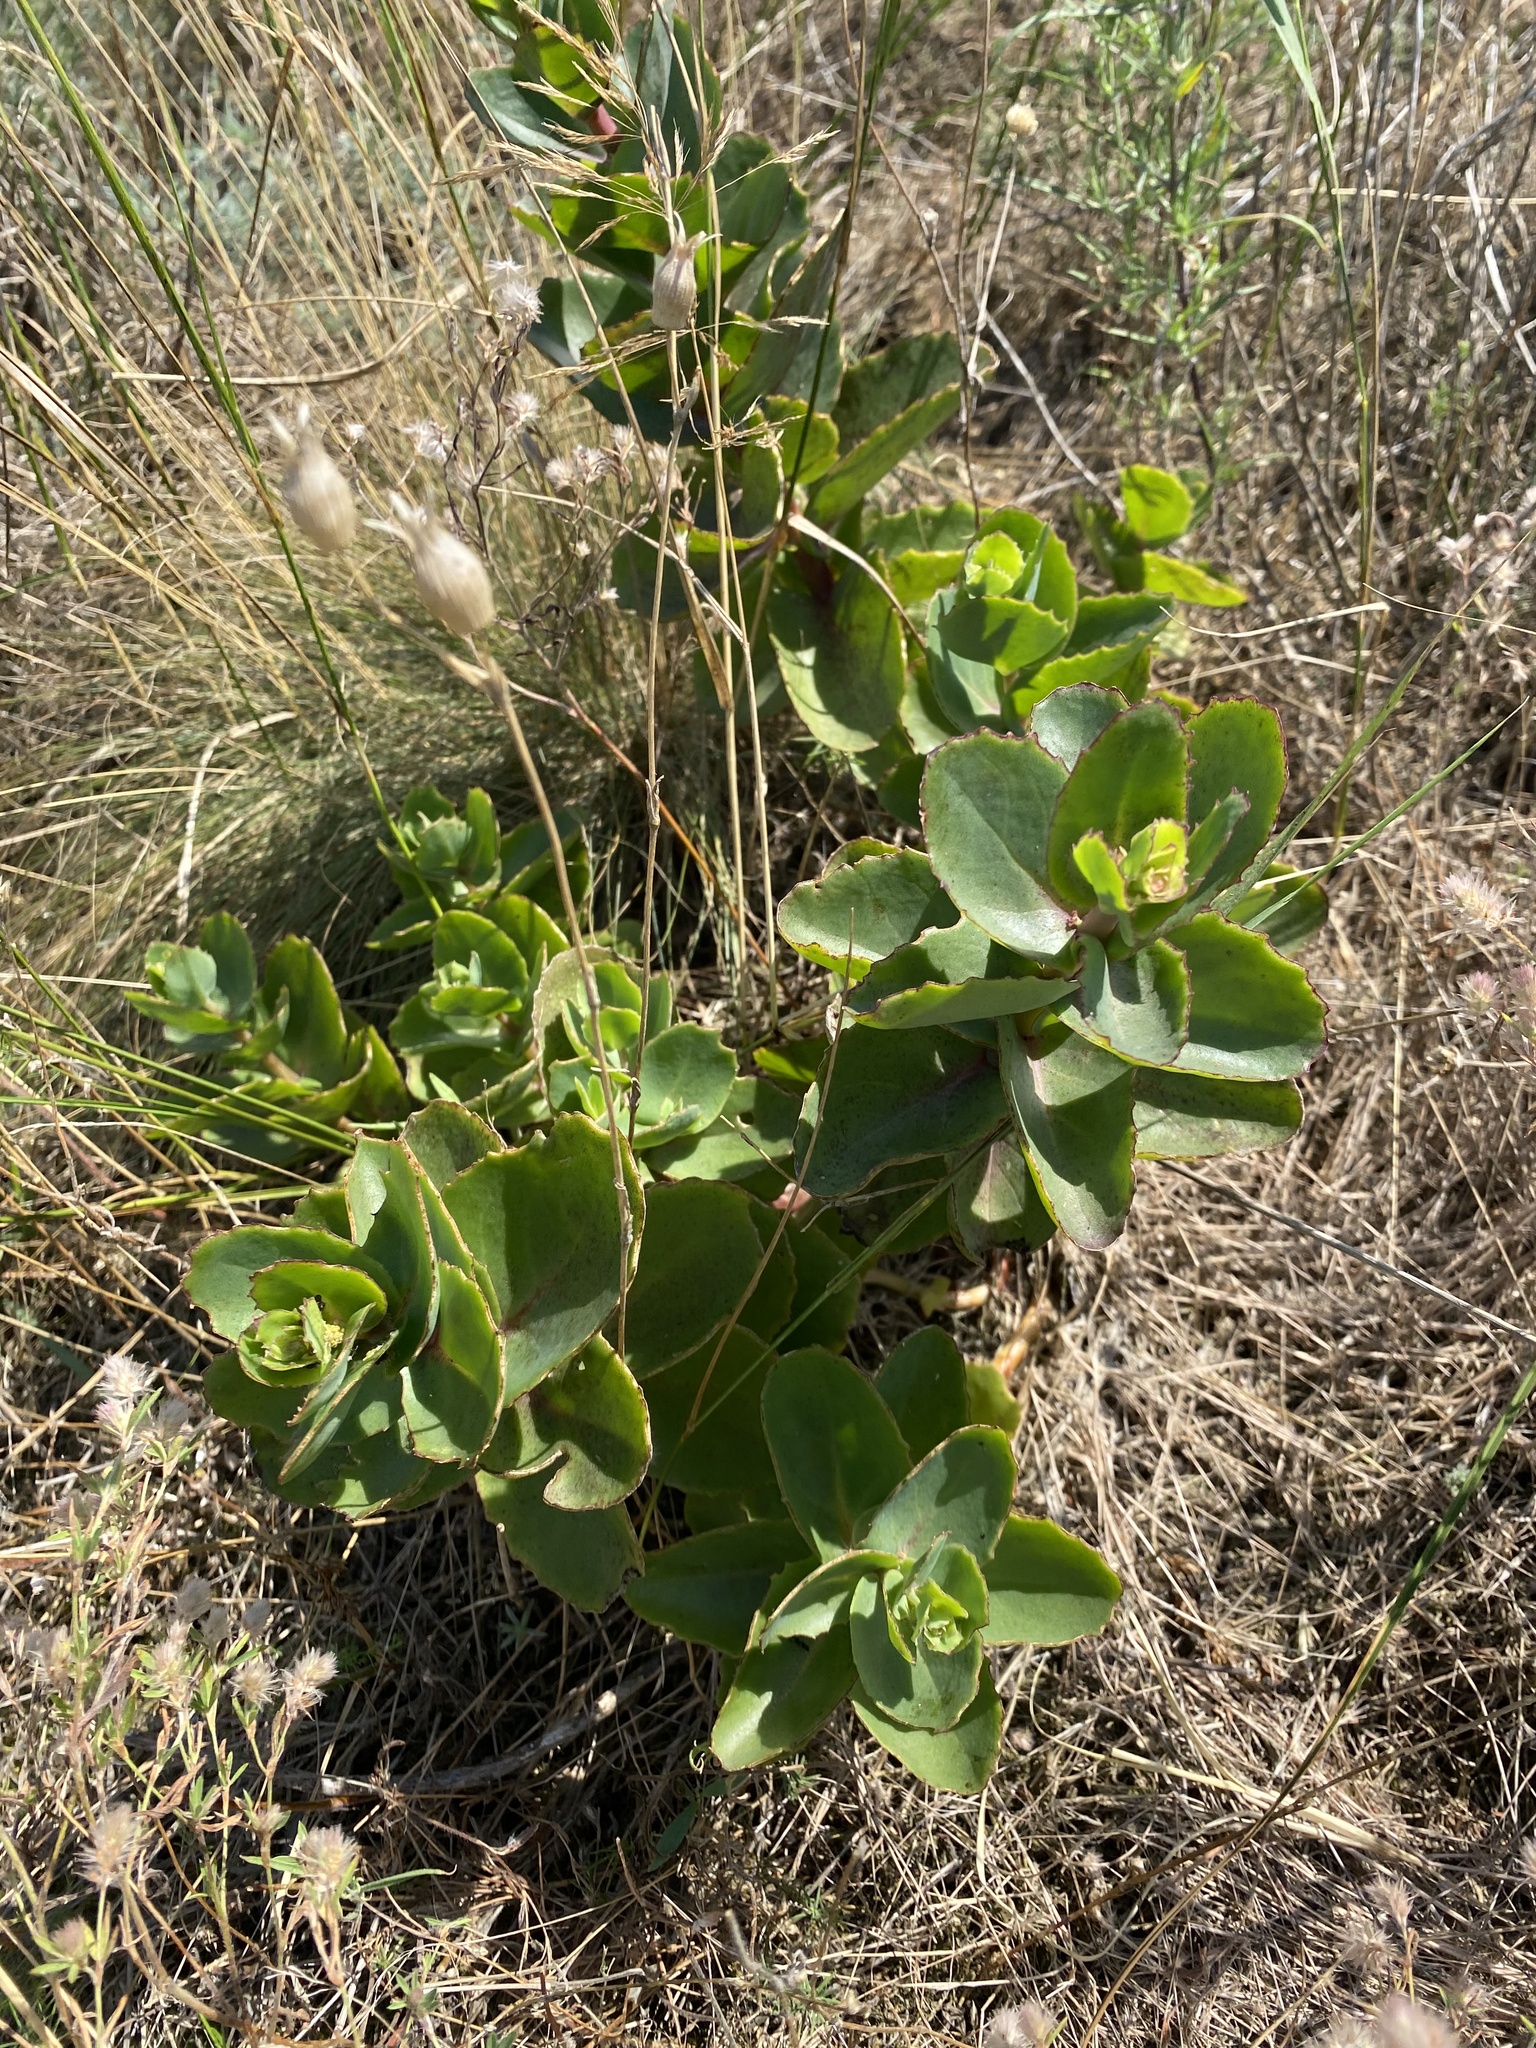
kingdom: Plantae
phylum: Tracheophyta
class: Magnoliopsida
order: Saxifragales
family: Crassulaceae
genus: Hylotelephium
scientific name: Hylotelephium maximum
